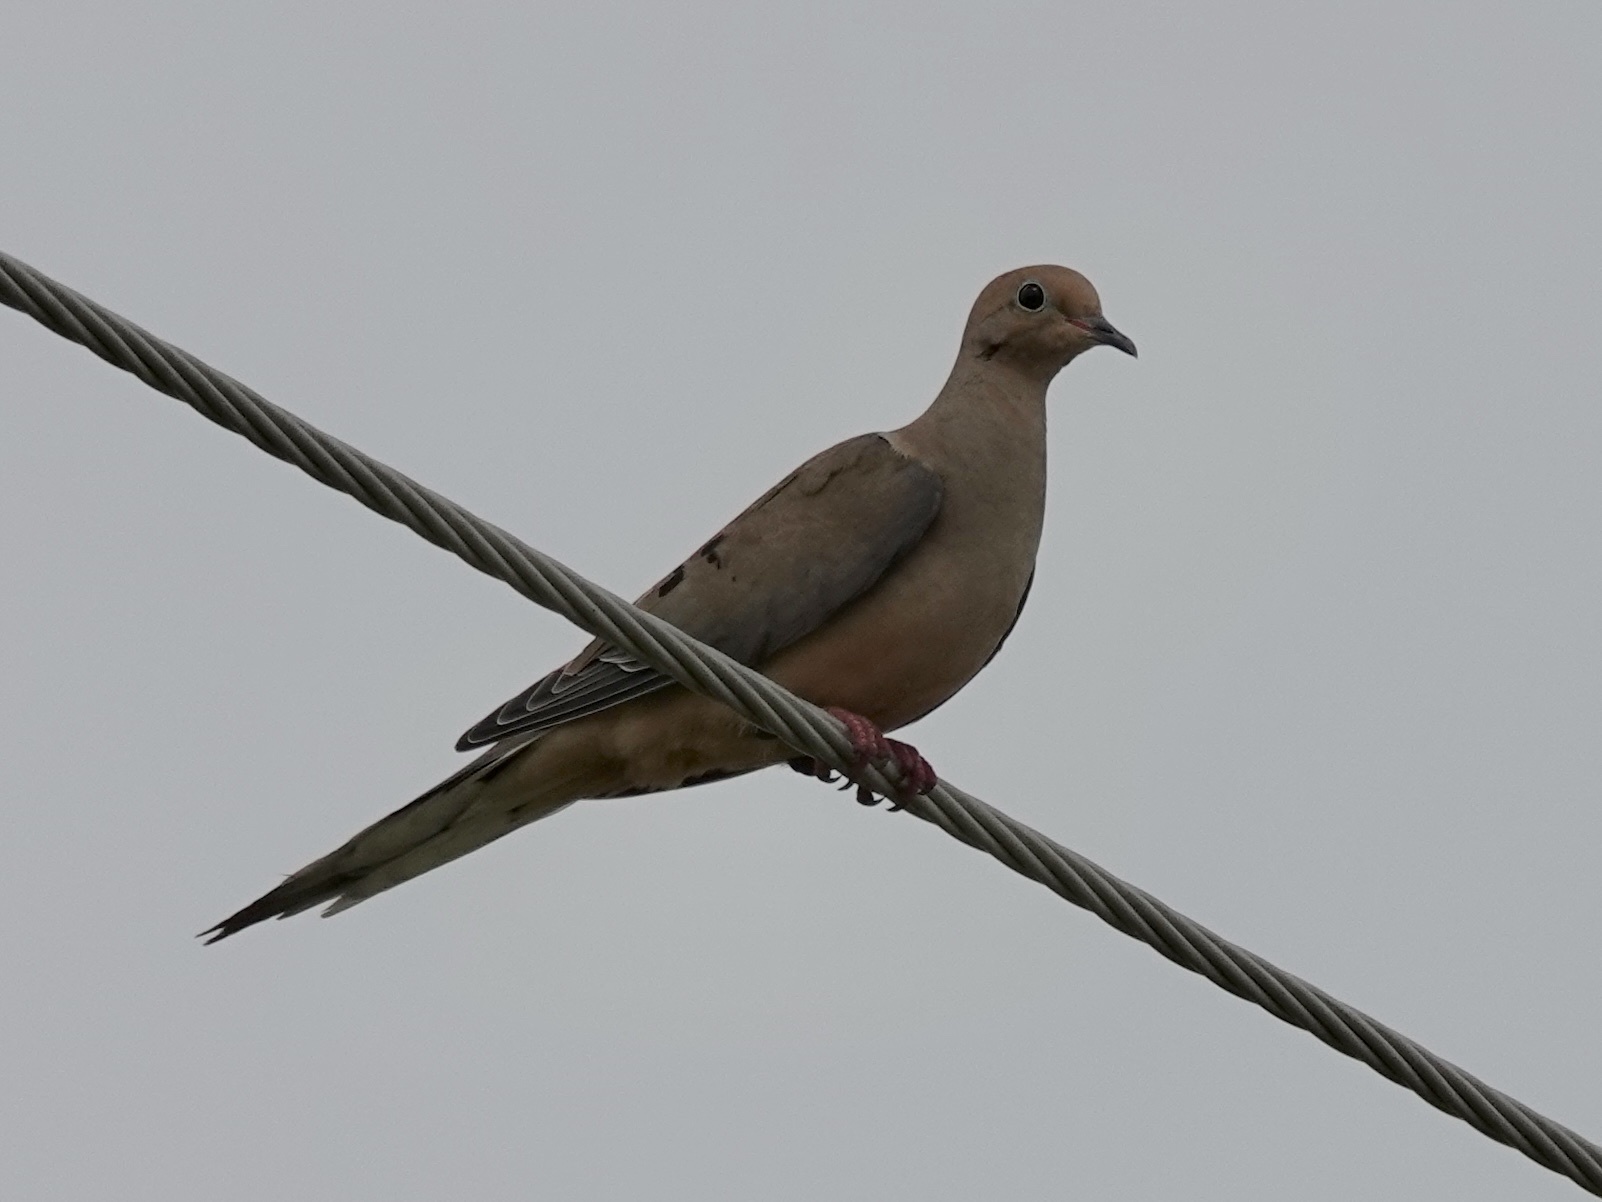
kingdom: Animalia
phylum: Chordata
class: Aves
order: Columbiformes
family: Columbidae
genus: Zenaida
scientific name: Zenaida macroura
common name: Mourning dove
